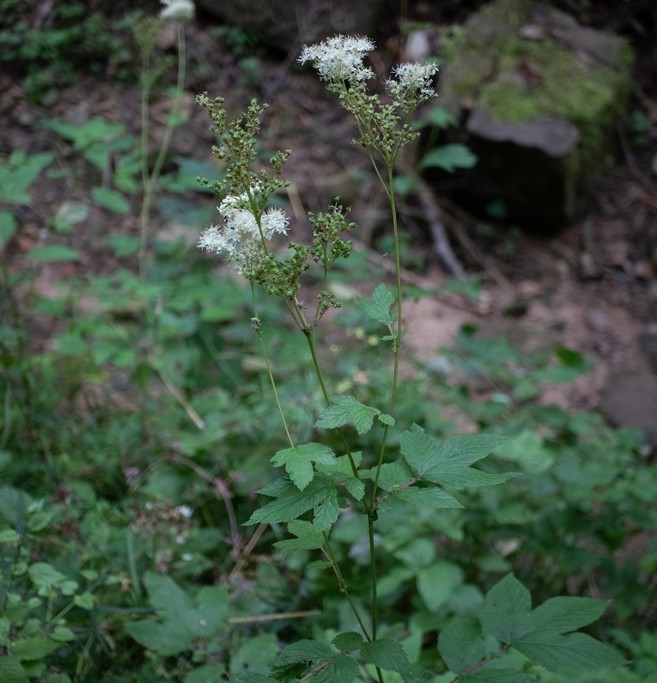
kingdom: Plantae
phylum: Tracheophyta
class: Magnoliopsida
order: Rosales
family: Rosaceae
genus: Filipendula
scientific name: Filipendula ulmaria
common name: Meadowsweet
